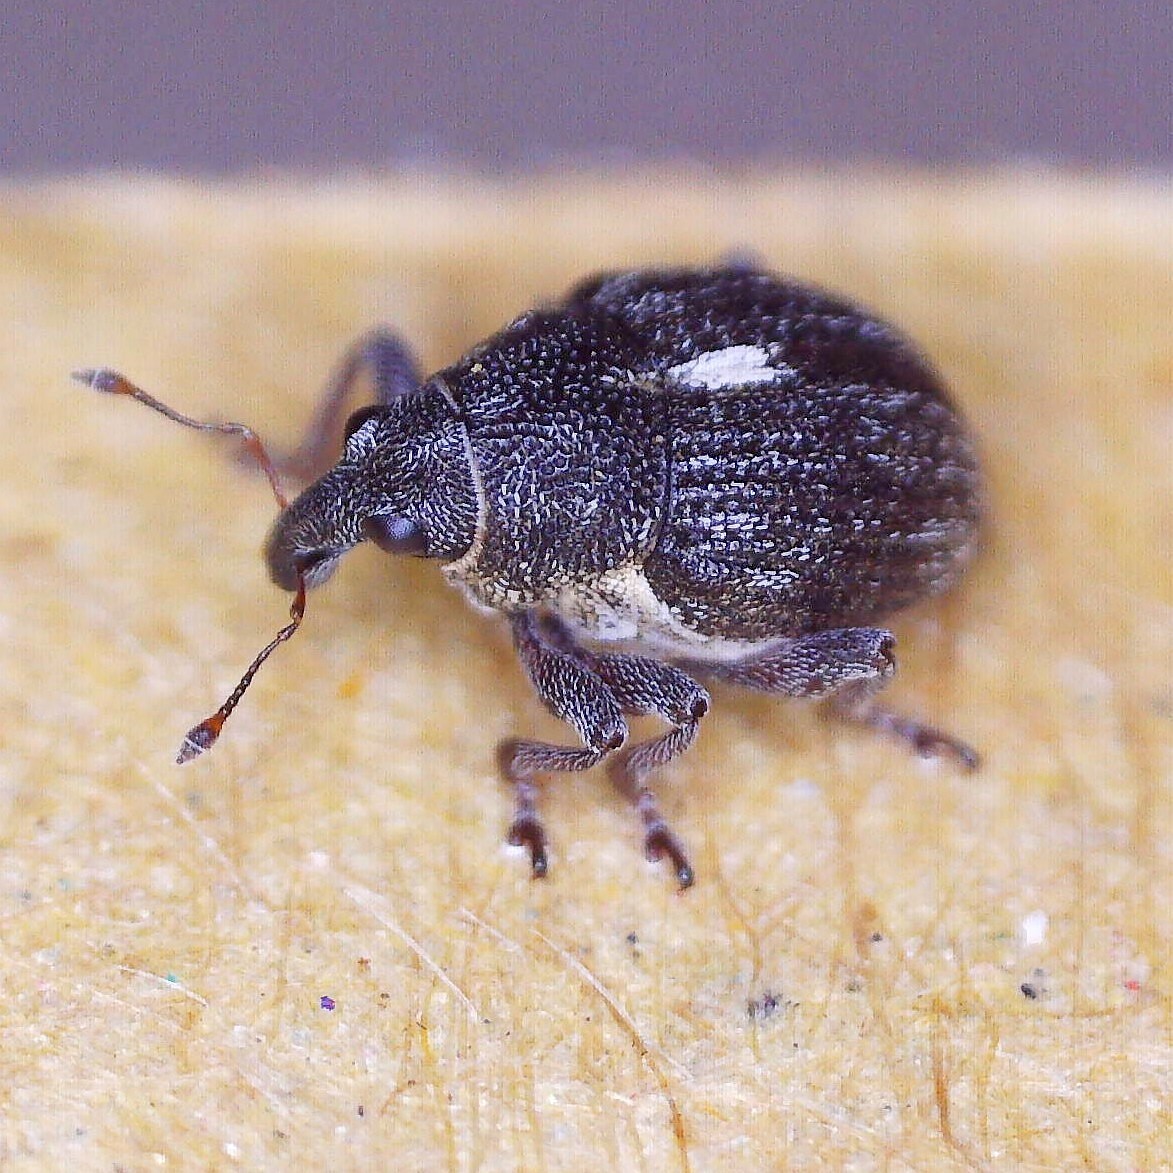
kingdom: Animalia
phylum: Arthropoda
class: Insecta
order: Coleoptera
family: Curculionidae
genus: Rhinoncus
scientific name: Rhinoncus leucostigma
